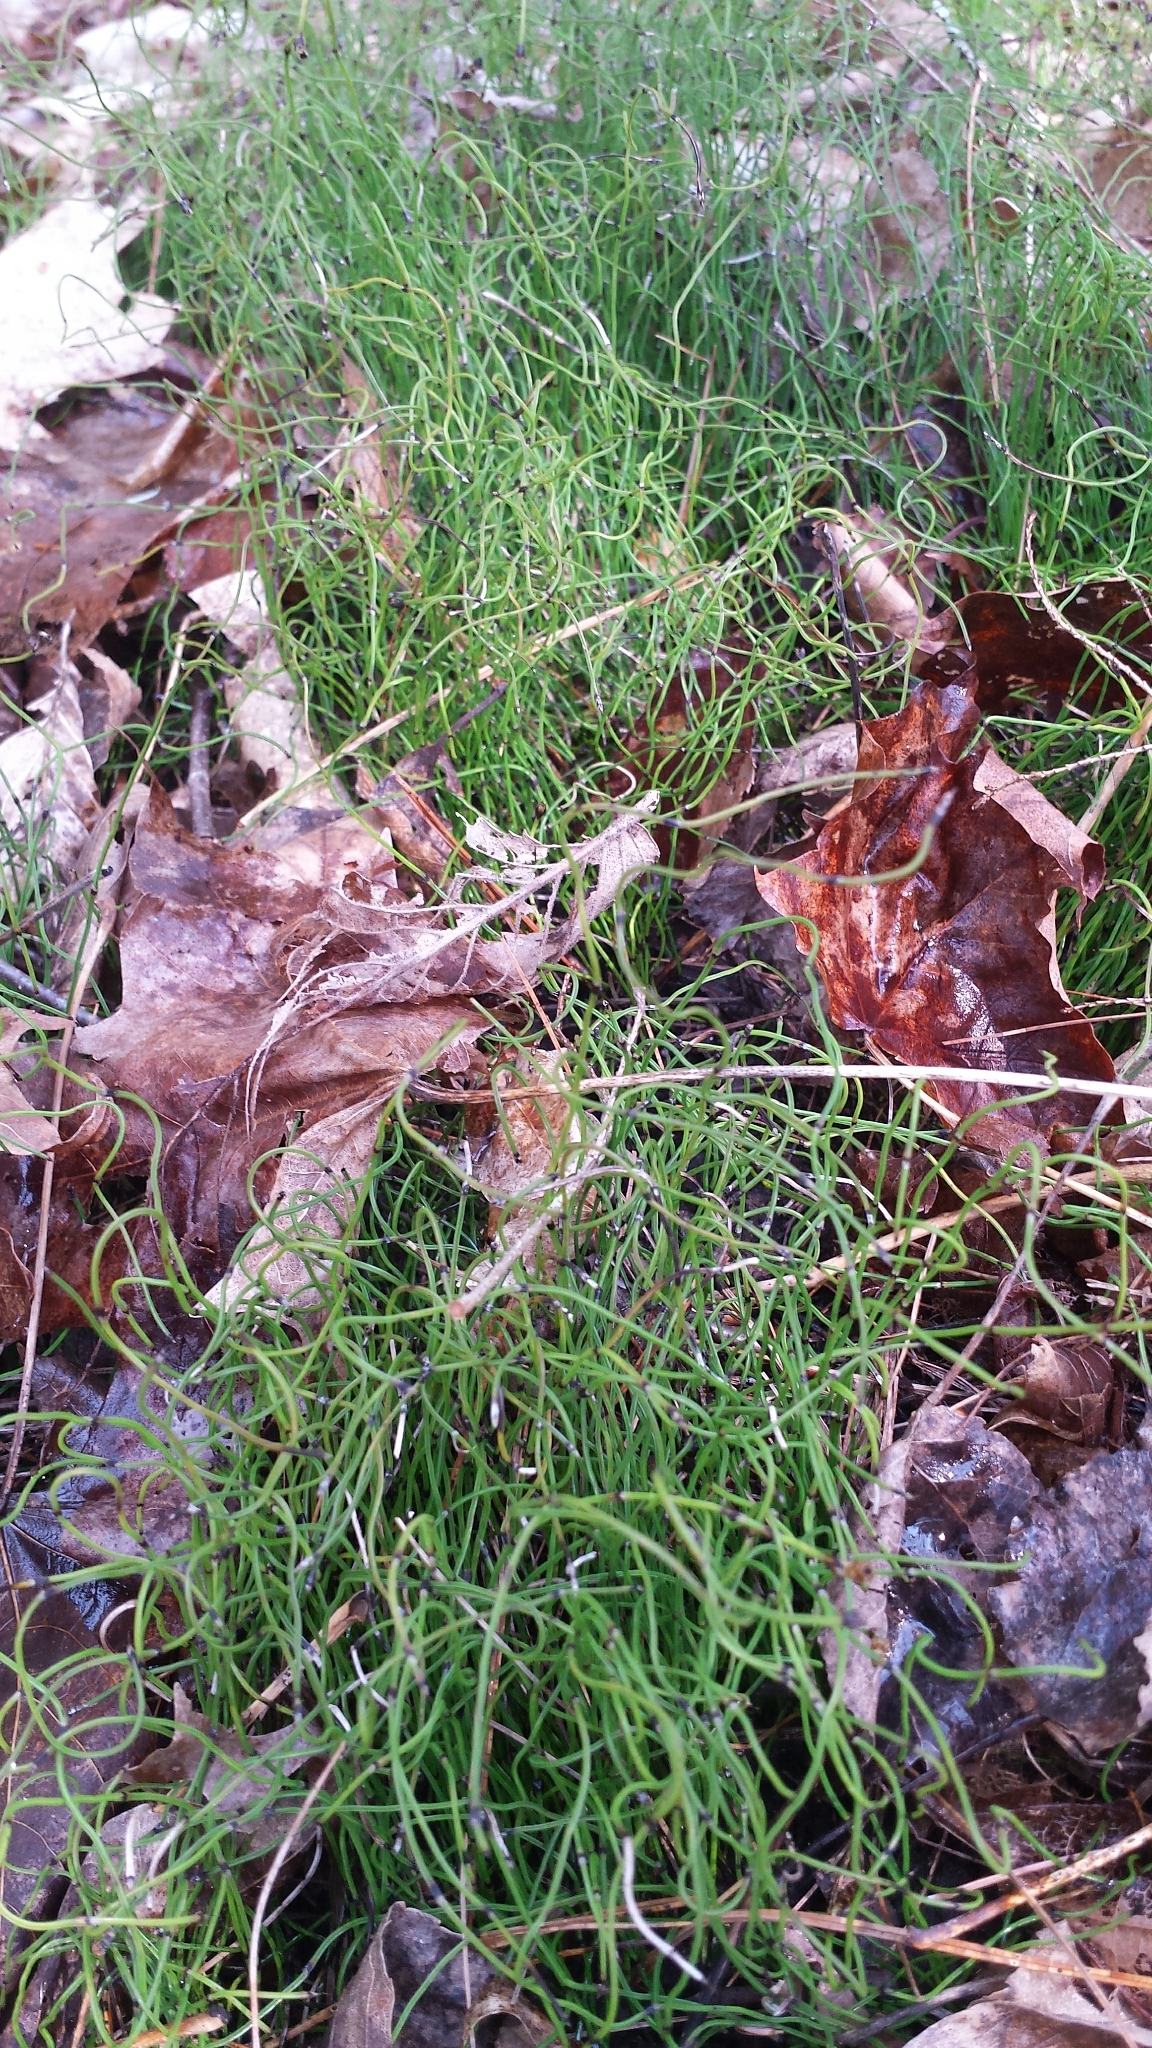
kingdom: Plantae
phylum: Tracheophyta
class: Polypodiopsida
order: Equisetales
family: Equisetaceae
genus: Equisetum
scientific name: Equisetum scirpoides
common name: Delicate horsetail
